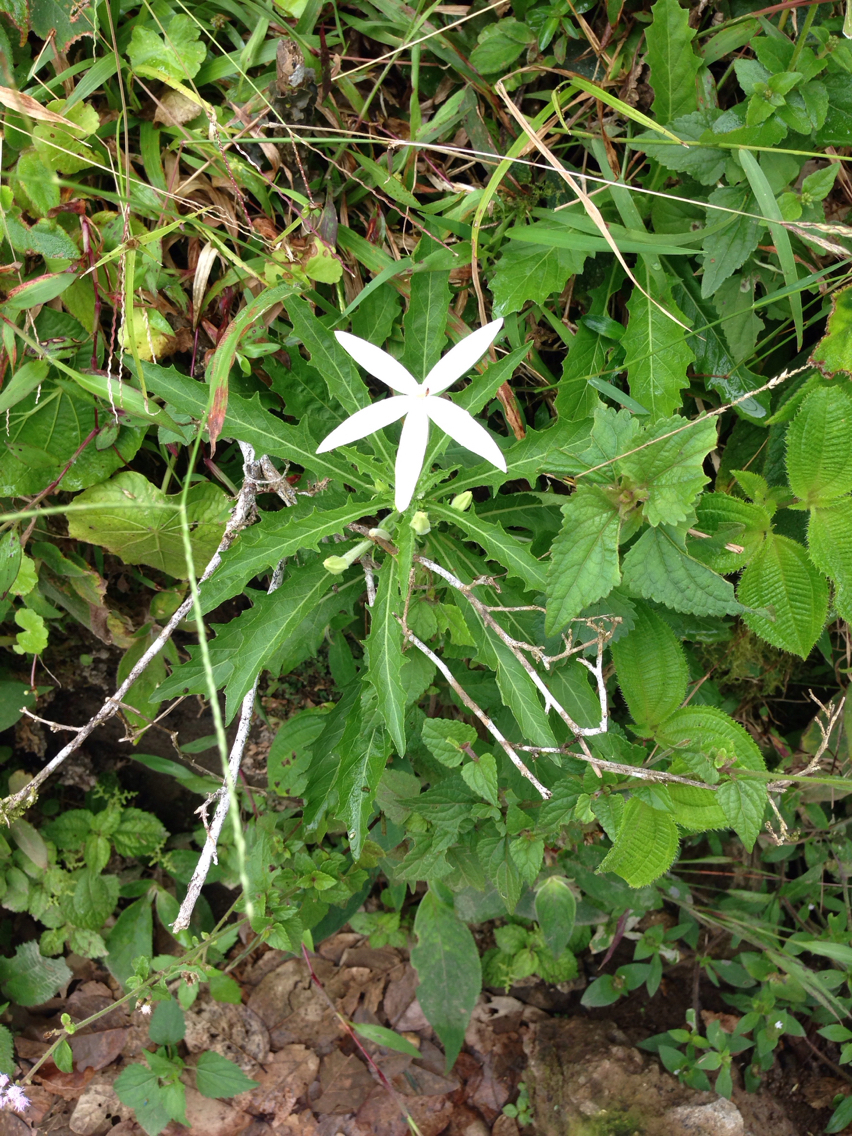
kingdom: Plantae
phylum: Tracheophyta
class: Magnoliopsida
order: Asterales
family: Campanulaceae
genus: Hippobroma
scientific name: Hippobroma longiflora
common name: Madamfate
